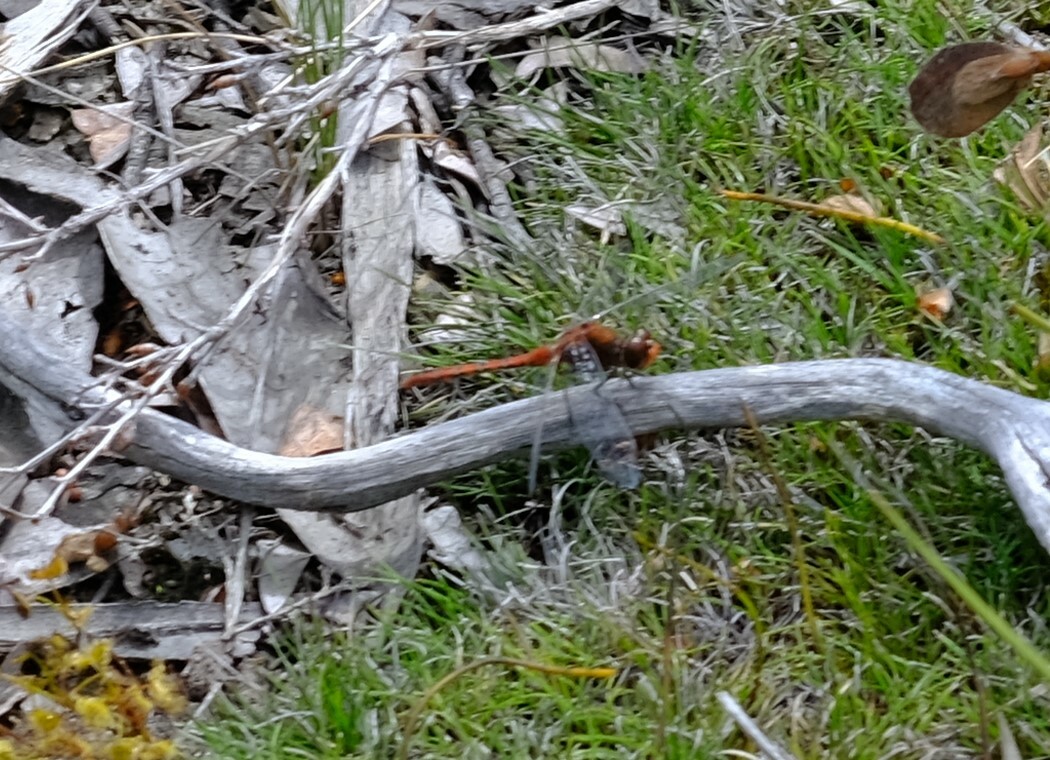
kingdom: Animalia
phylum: Arthropoda
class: Insecta
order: Odonata
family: Libellulidae
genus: Diplacodes
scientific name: Diplacodes bipunctata
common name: Red percher dragonfly
